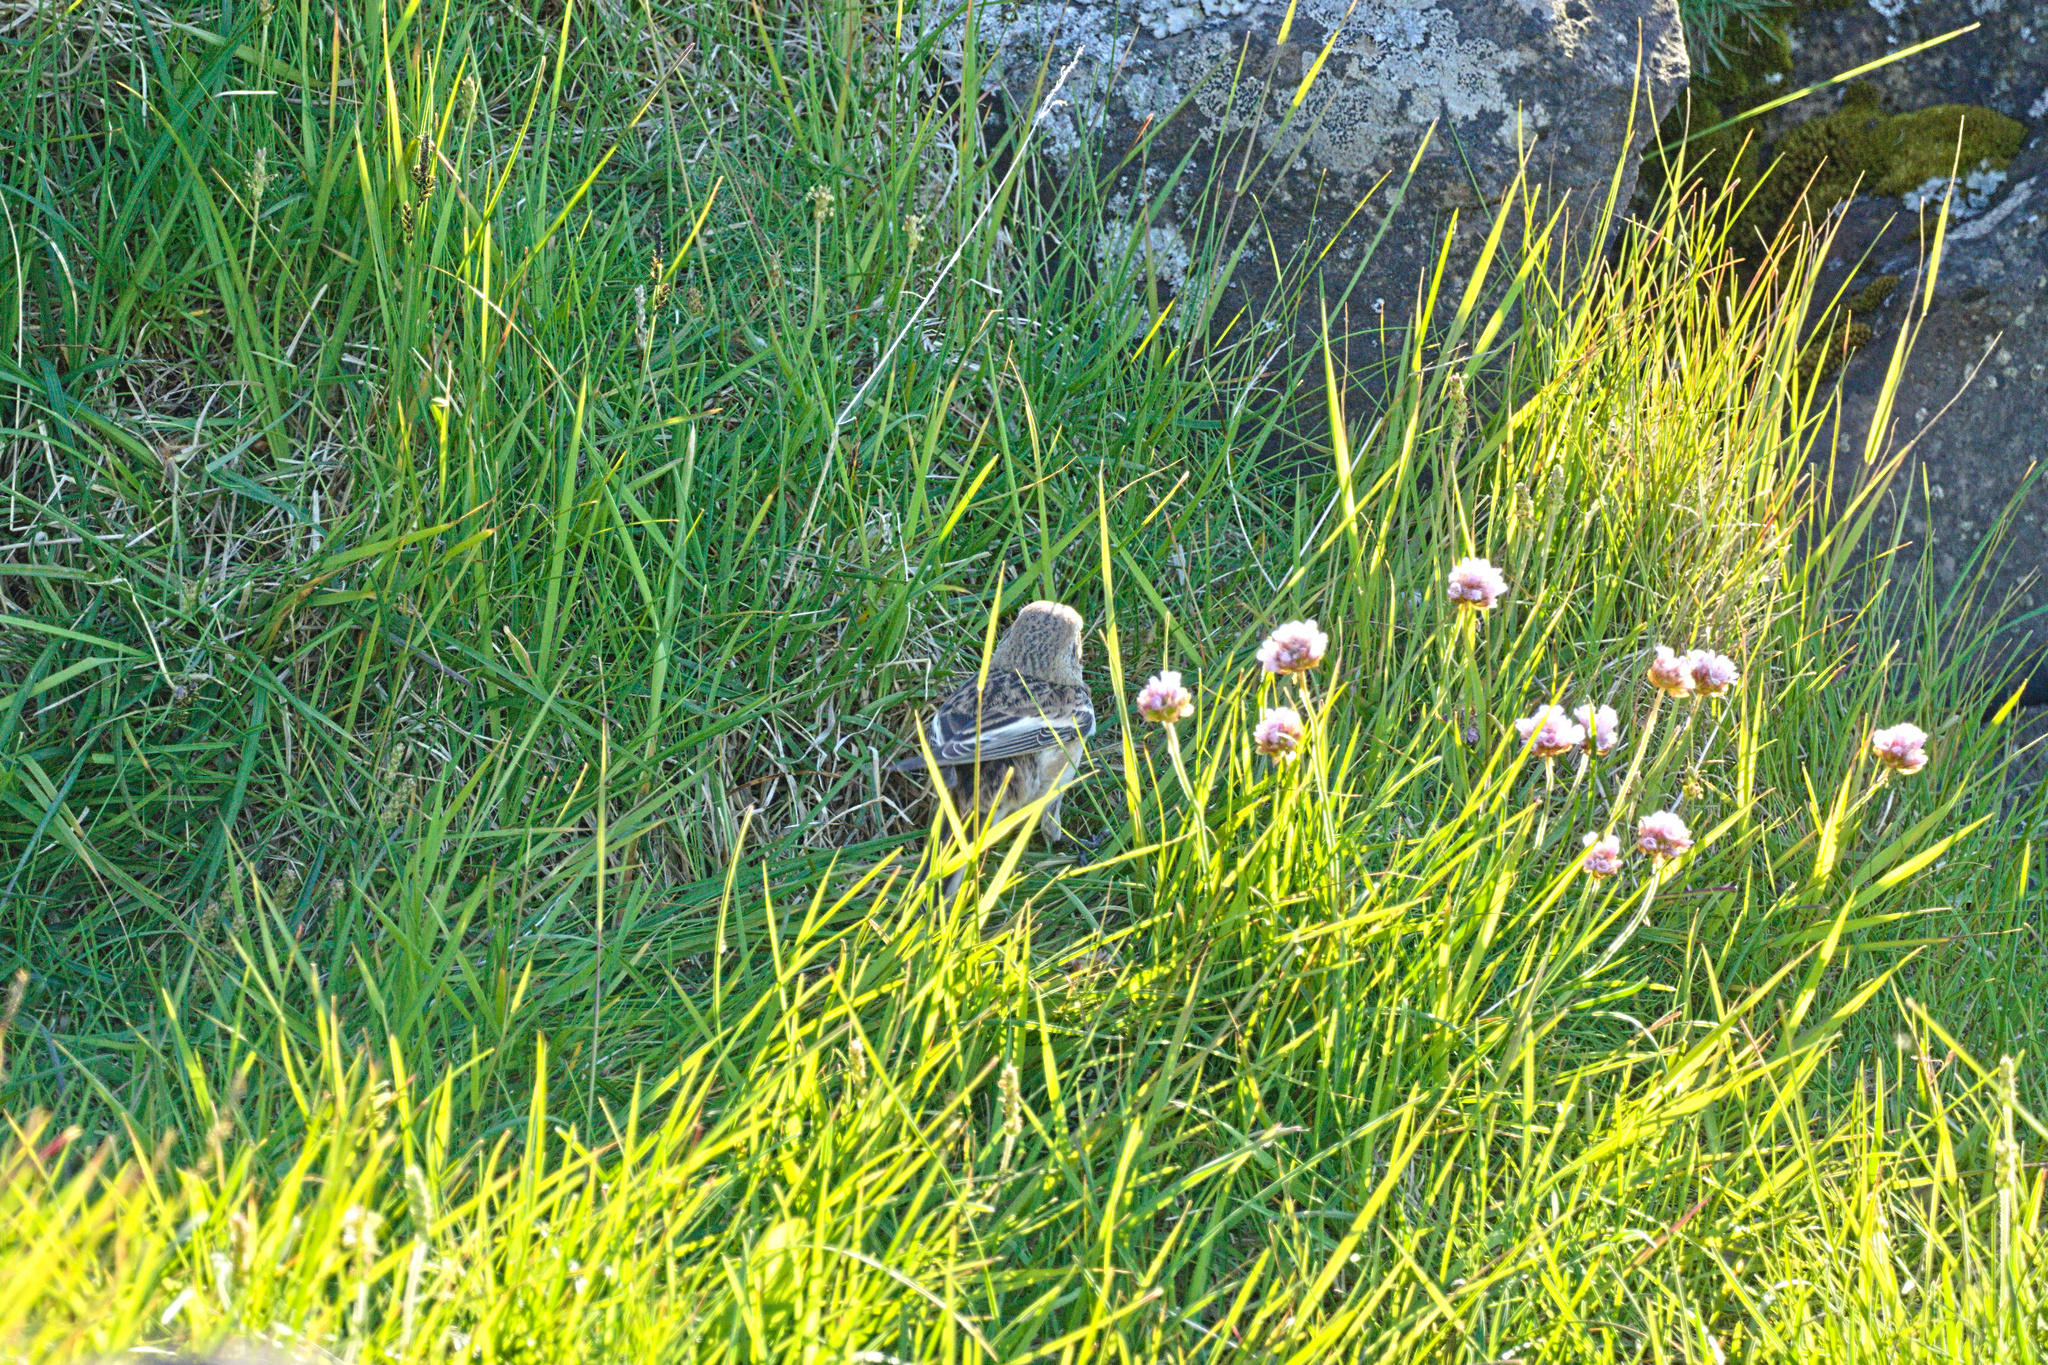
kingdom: Plantae
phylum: Tracheophyta
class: Magnoliopsida
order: Caryophyllales
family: Plumbaginaceae
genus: Armeria
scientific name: Armeria maritima
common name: Thrift
